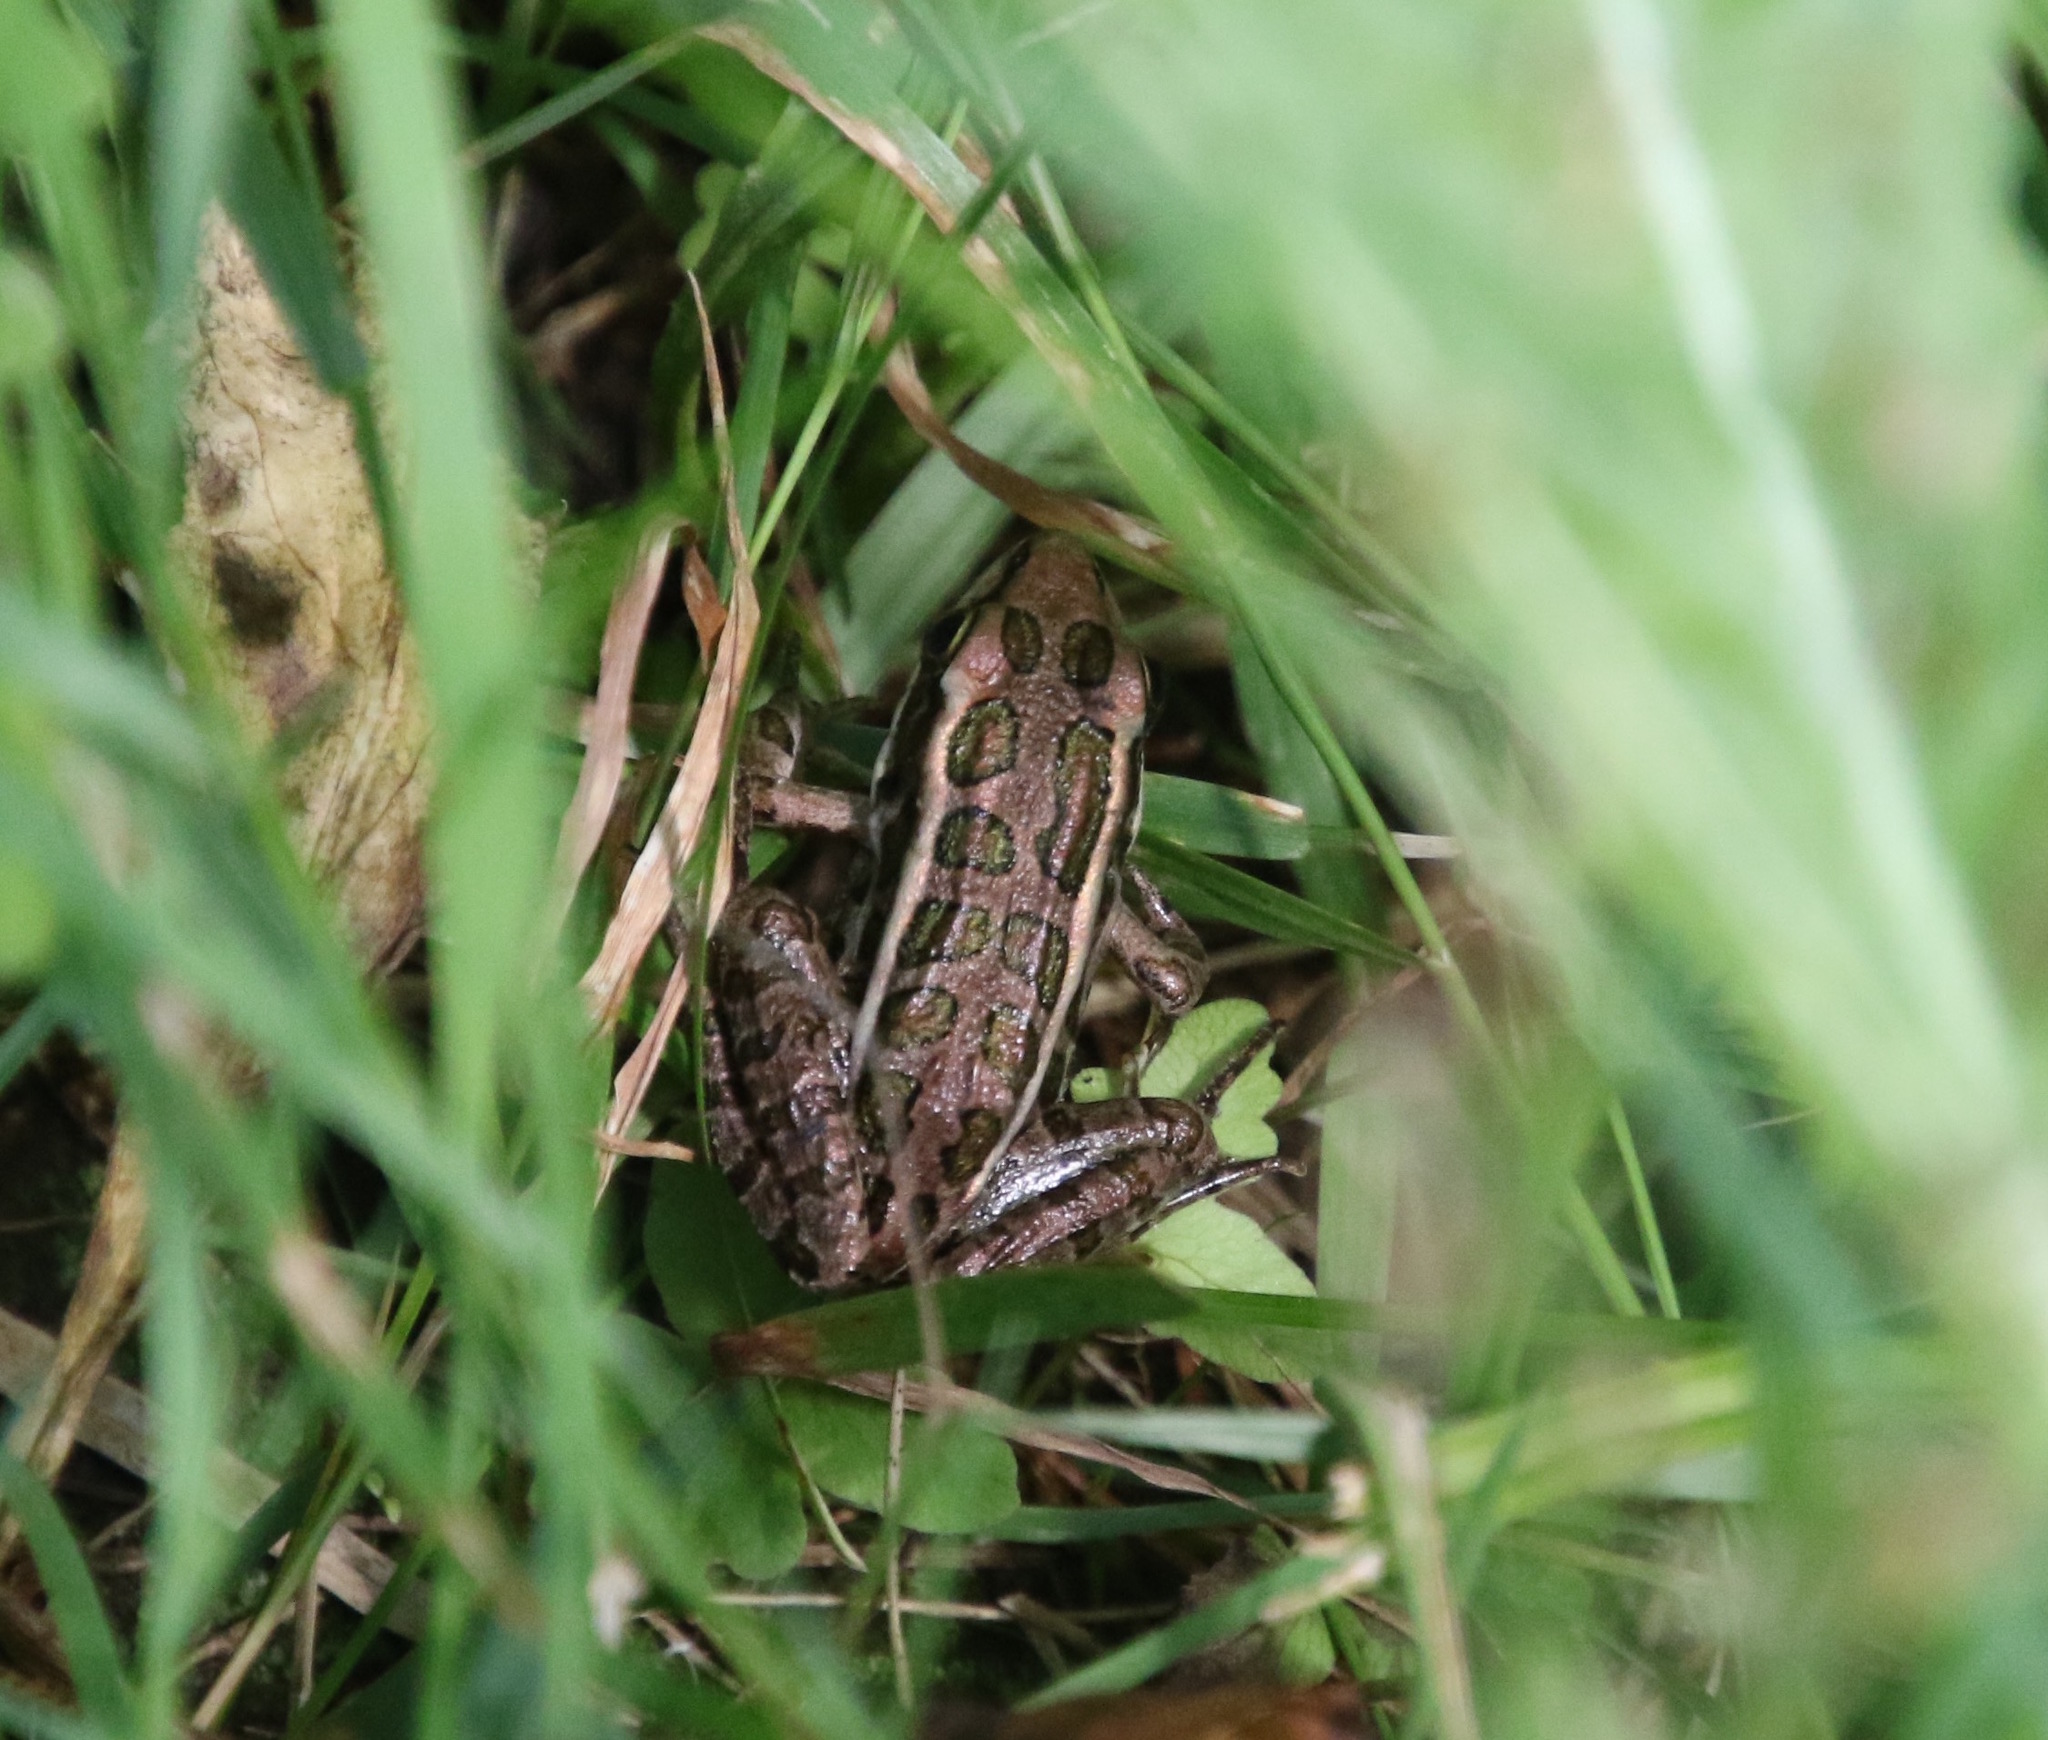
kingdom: Animalia
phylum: Chordata
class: Amphibia
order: Anura
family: Ranidae
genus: Lithobates
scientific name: Lithobates palustris
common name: Pickerel frog
